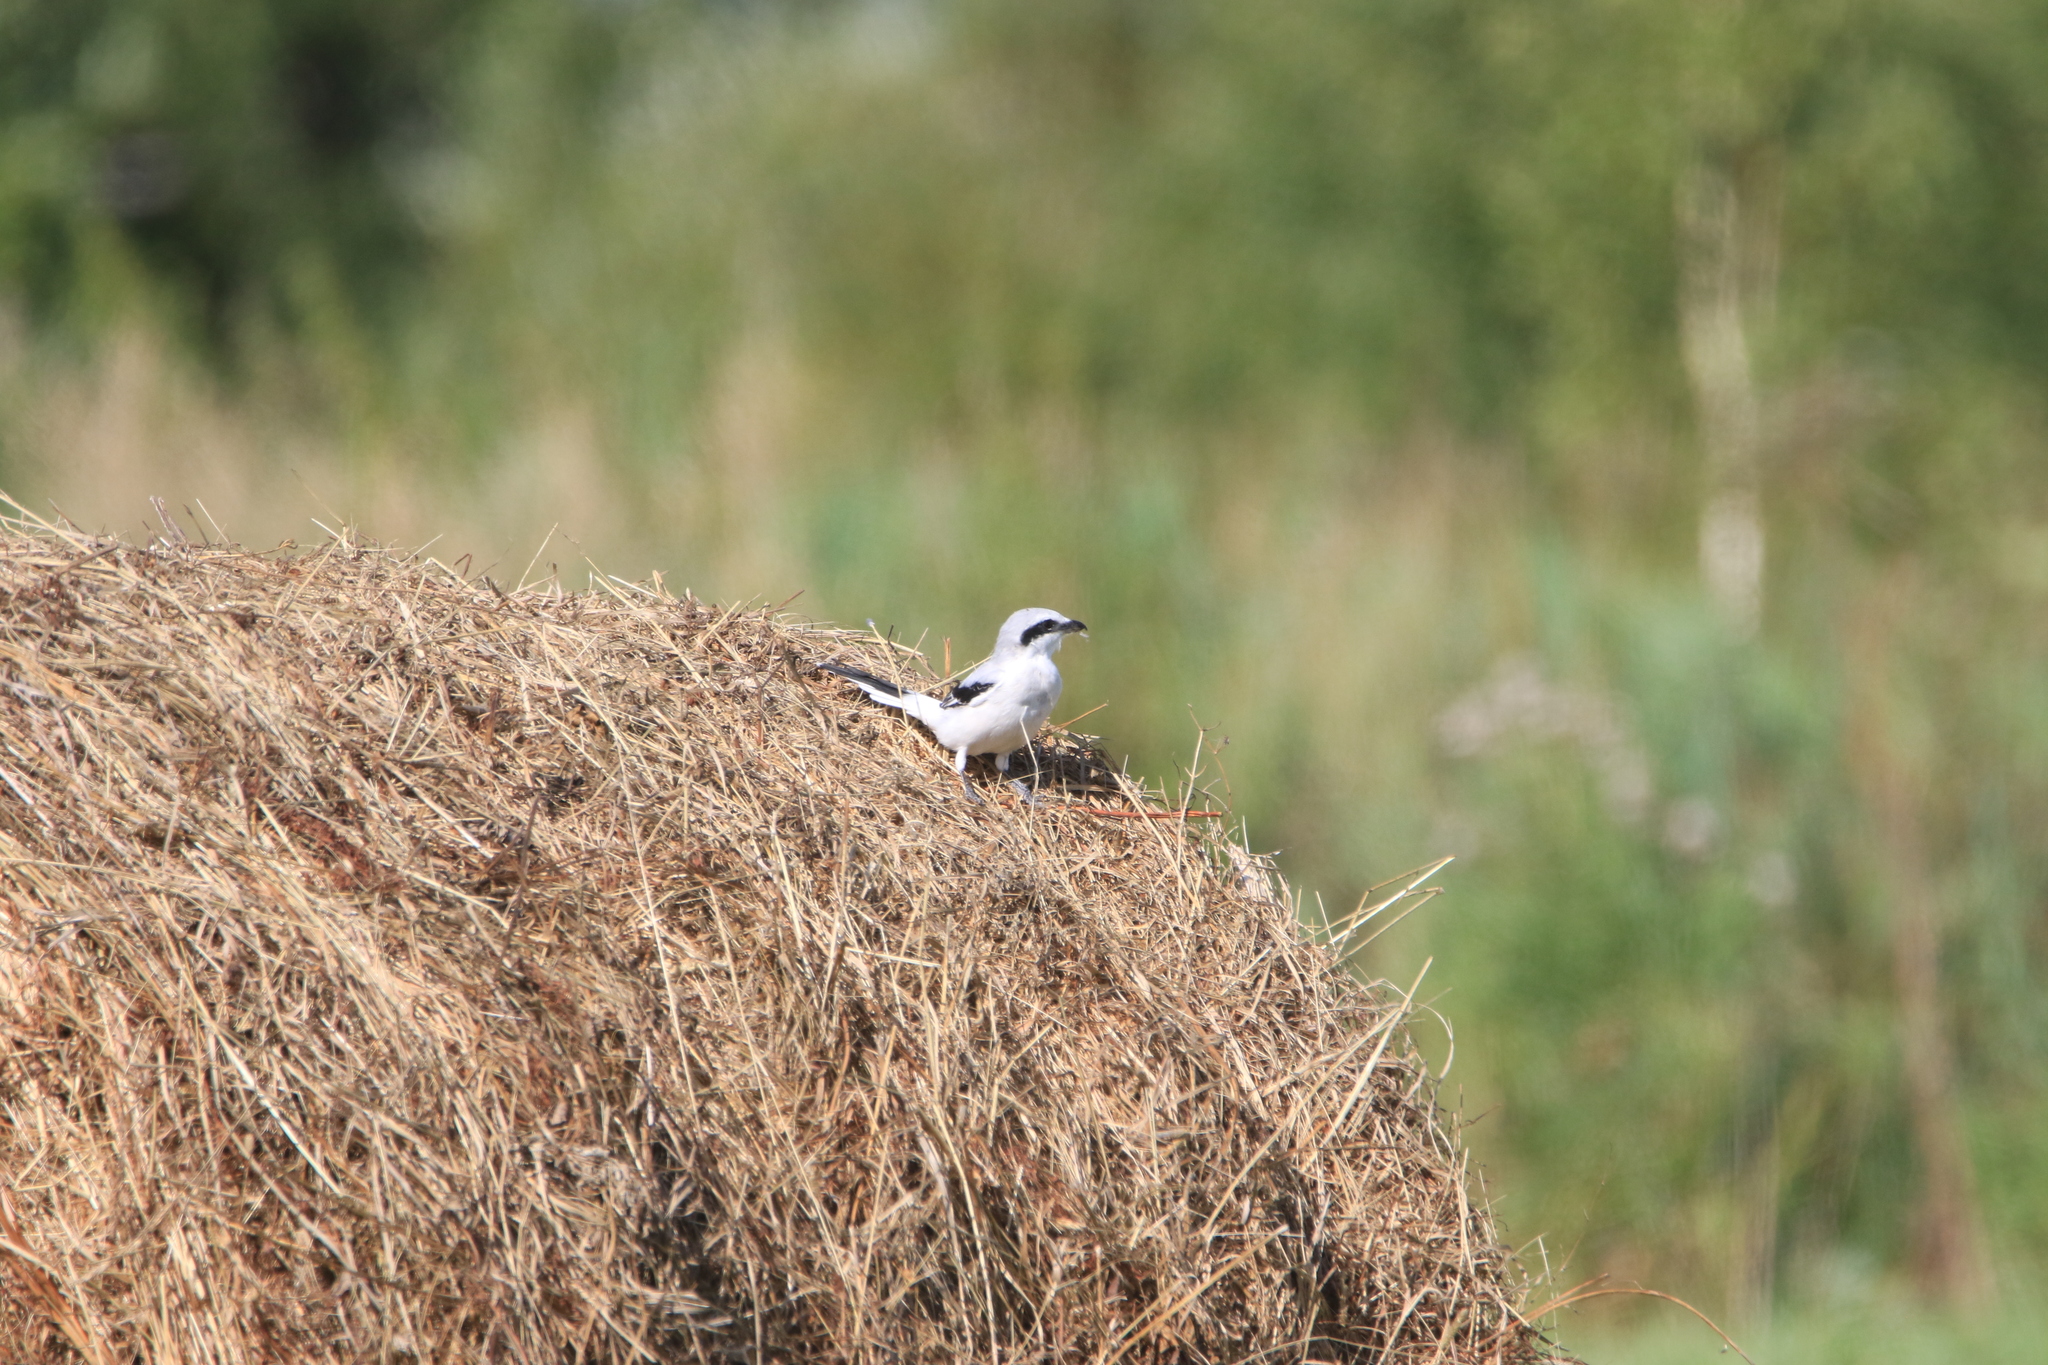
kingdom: Animalia
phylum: Chordata
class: Aves
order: Passeriformes
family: Laniidae
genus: Lanius
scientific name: Lanius excubitor
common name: Great grey shrike
